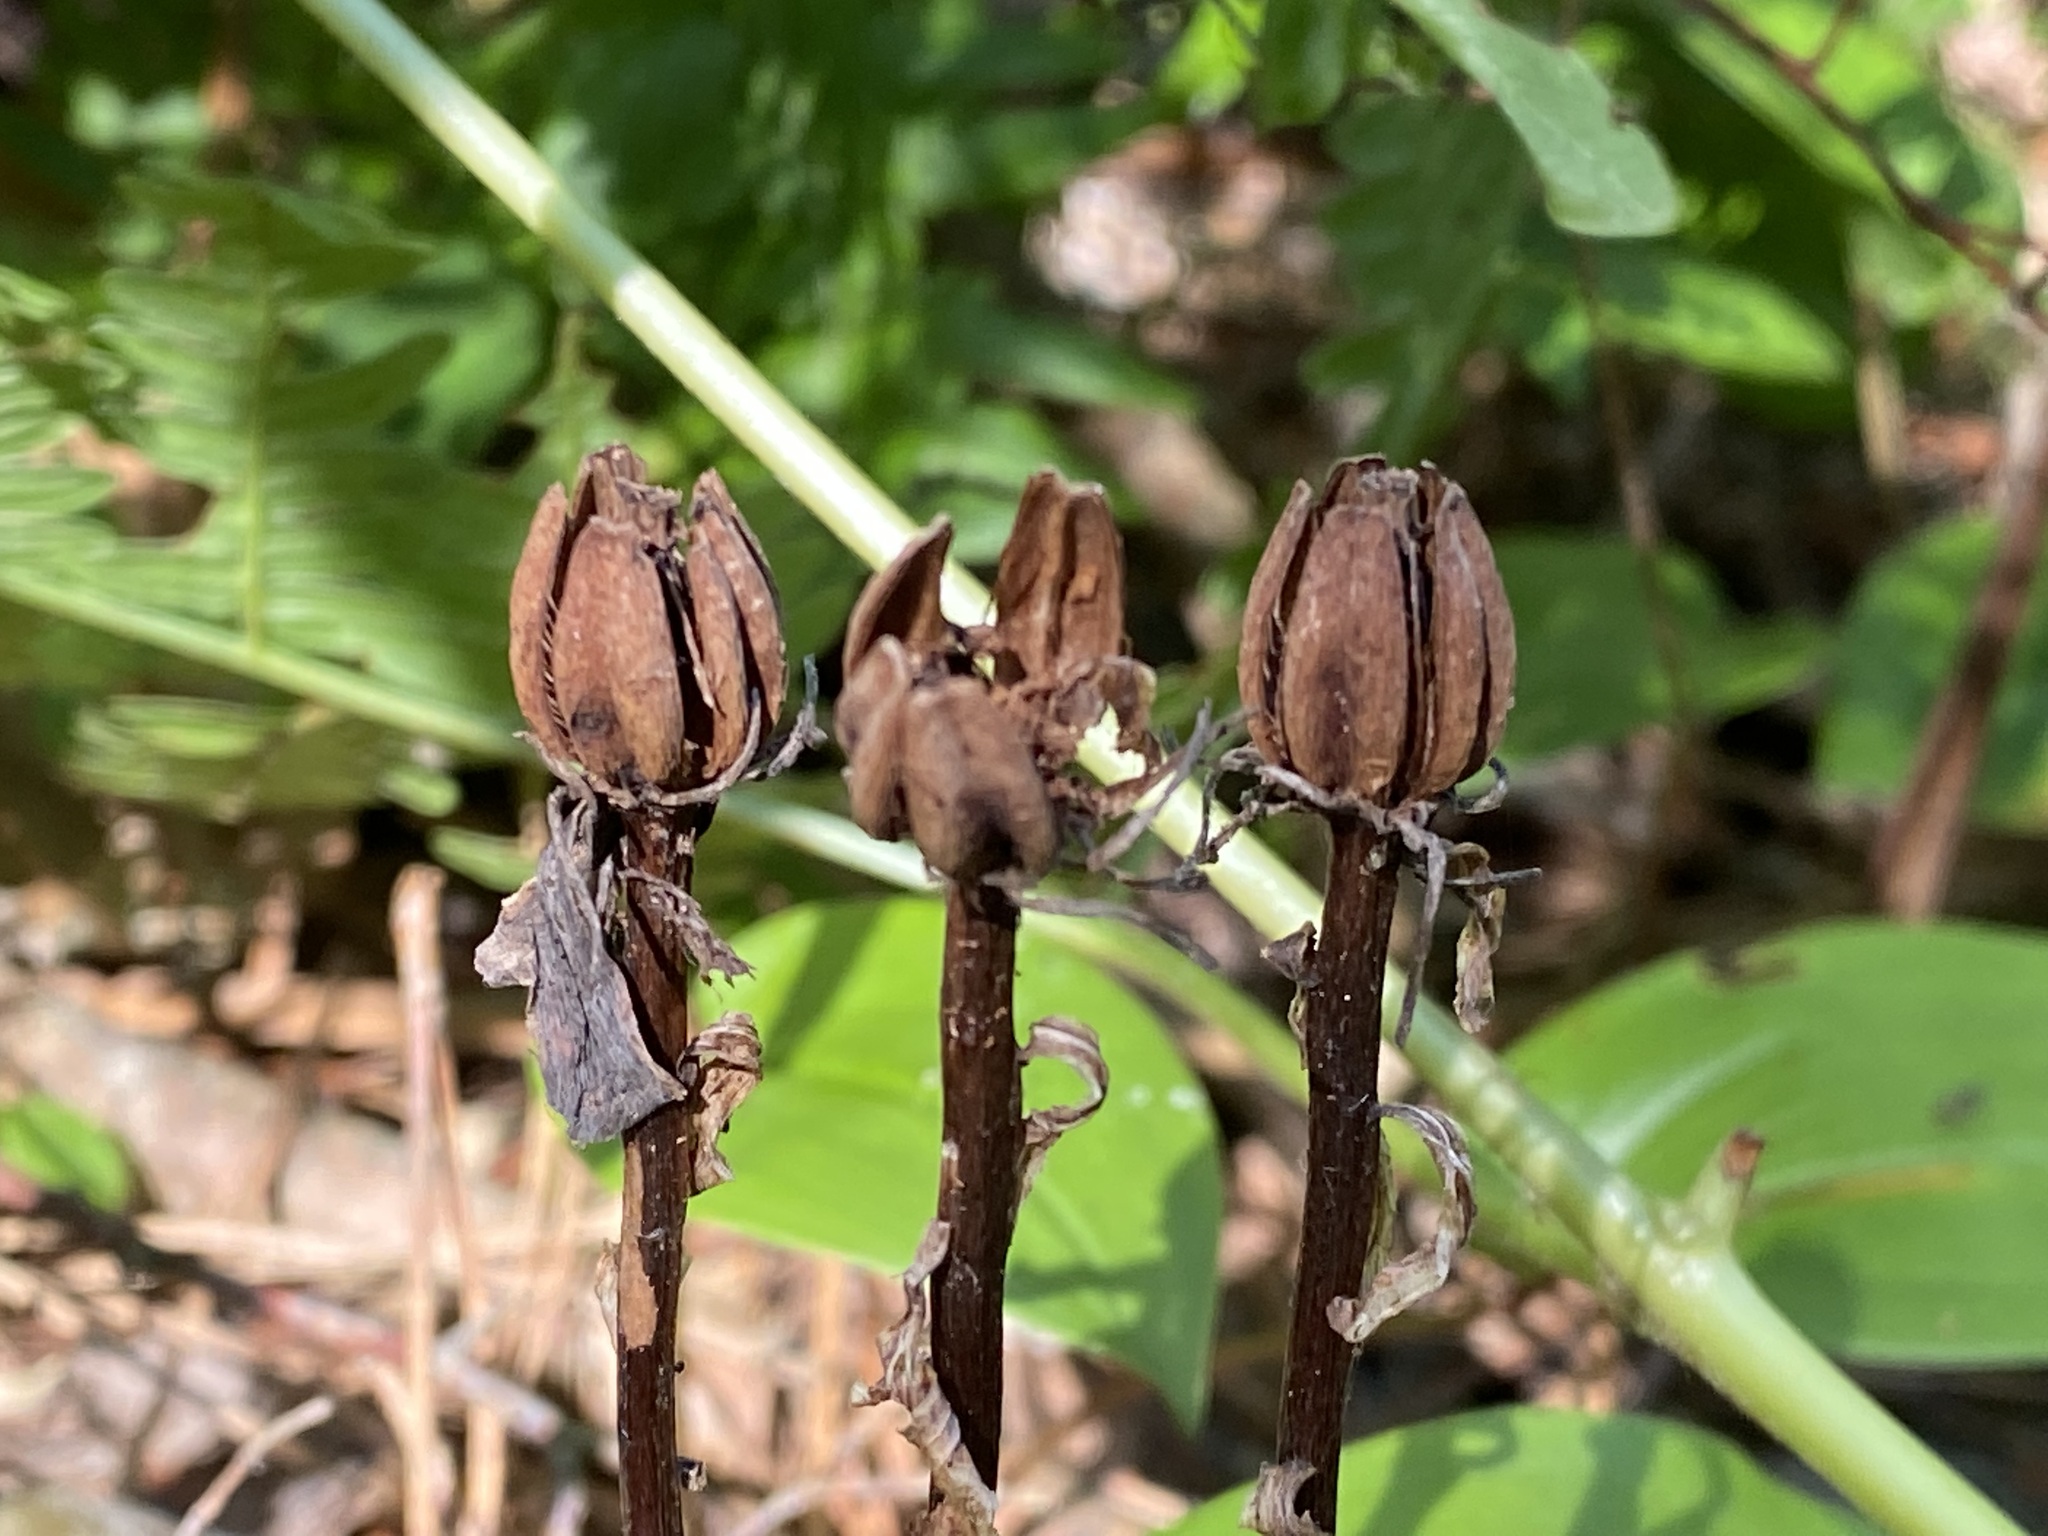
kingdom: Plantae
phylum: Tracheophyta
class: Magnoliopsida
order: Ericales
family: Ericaceae
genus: Monotropa
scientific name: Monotropa uniflora
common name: Convulsion root
